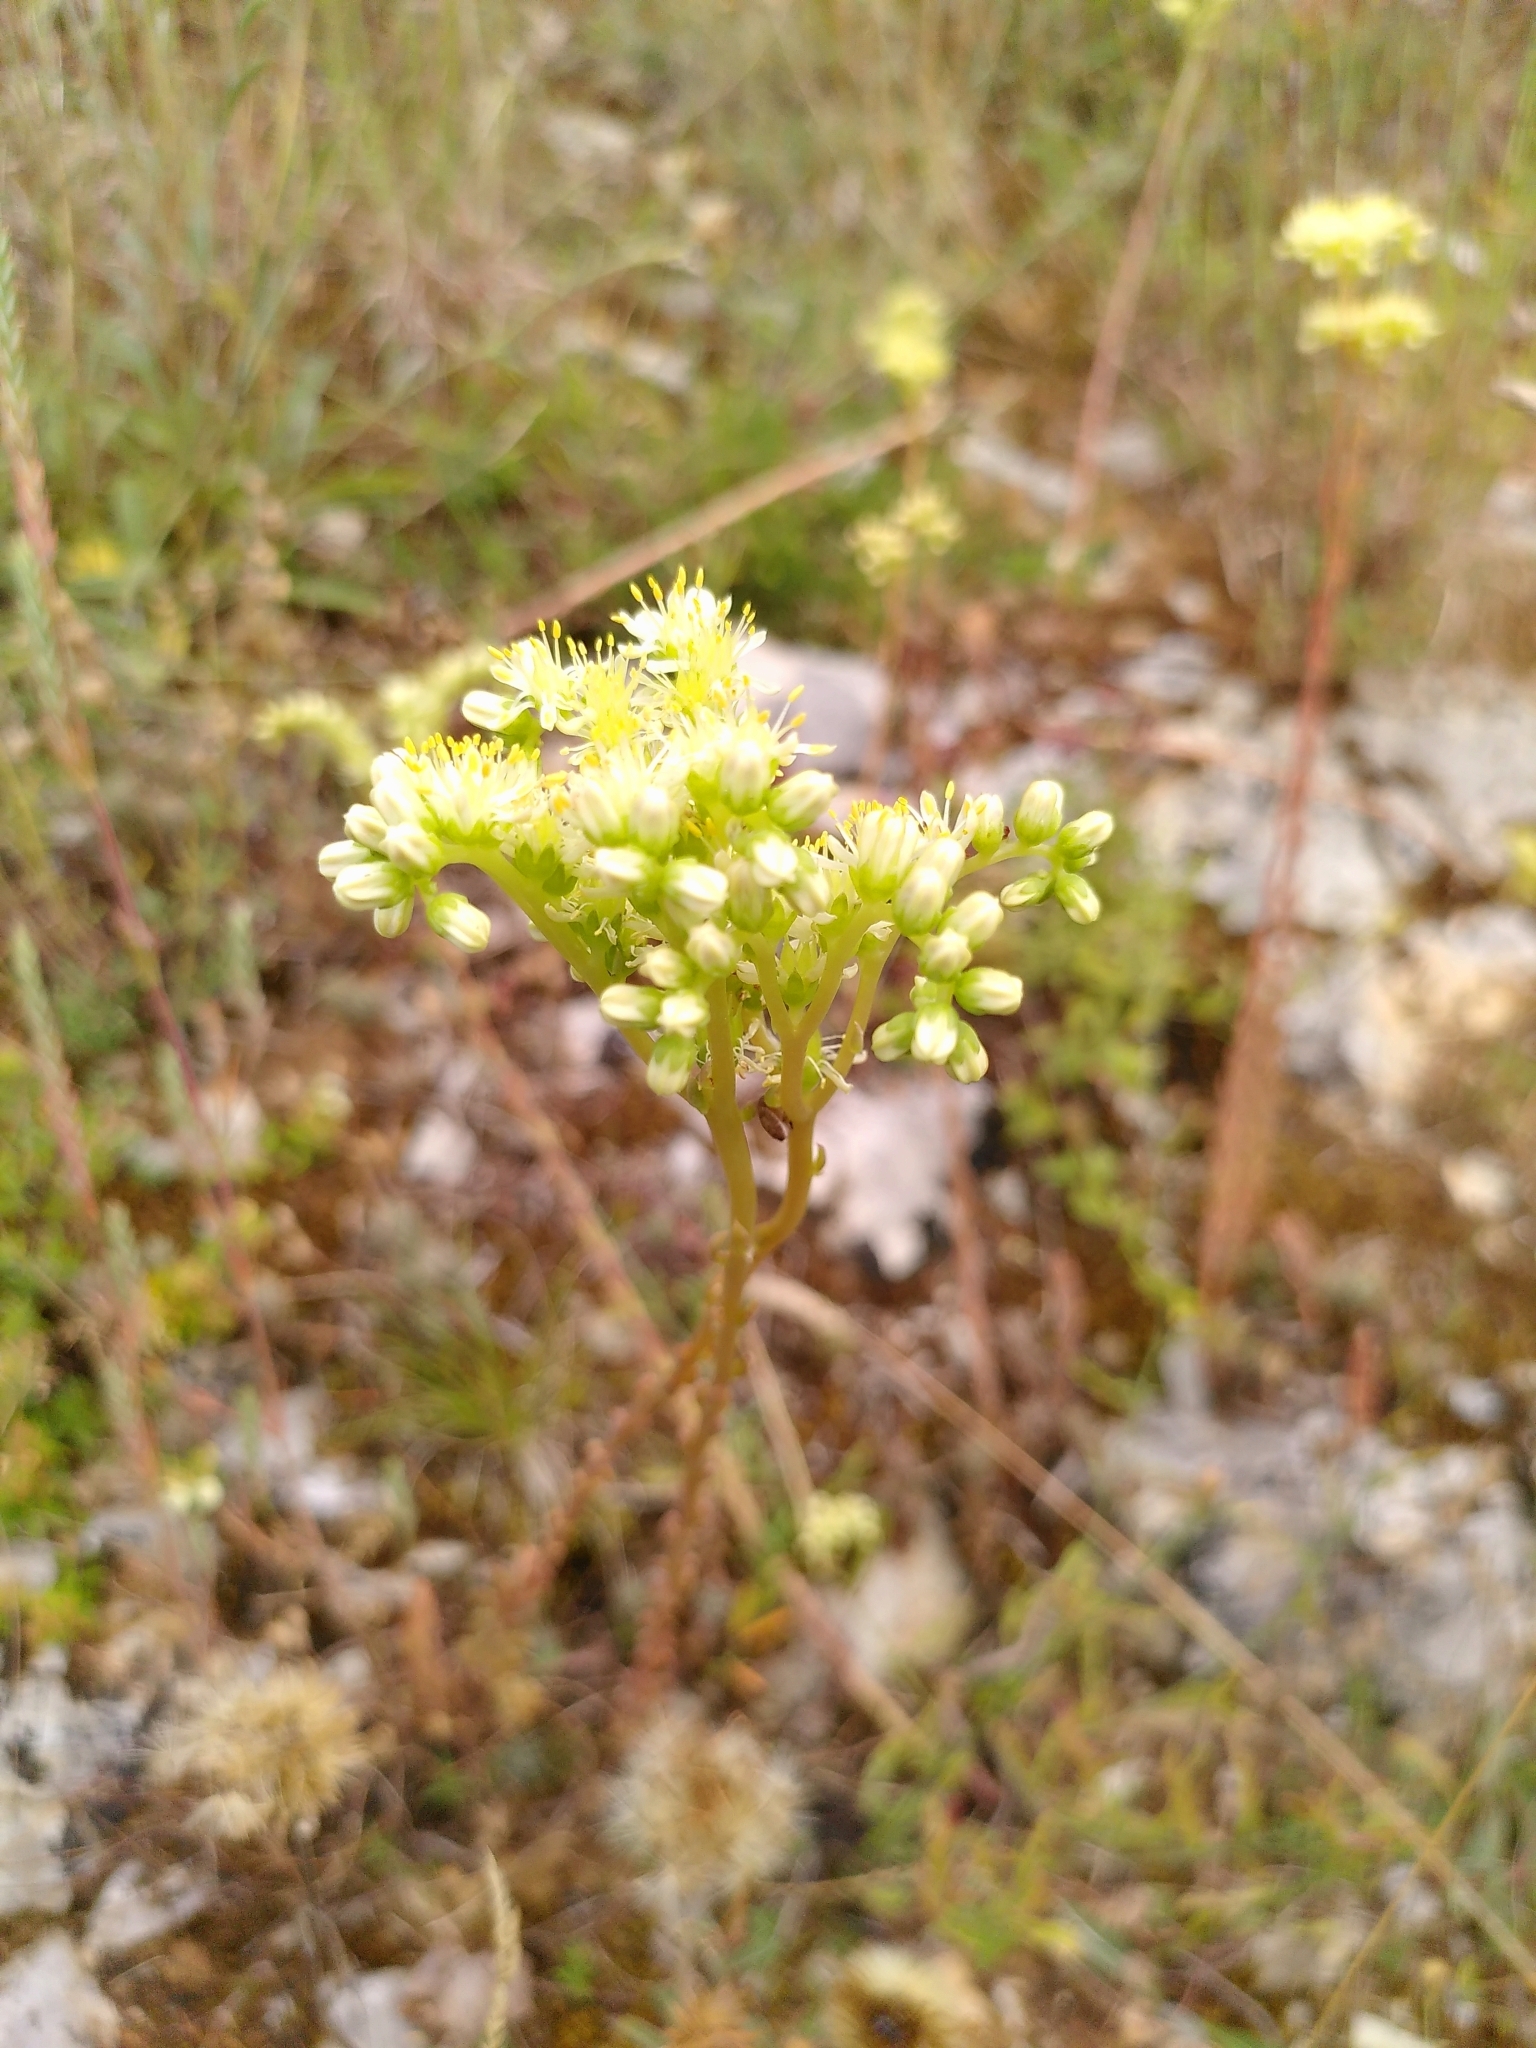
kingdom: Plantae
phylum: Tracheophyta
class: Magnoliopsida
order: Saxifragales
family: Crassulaceae
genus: Petrosedum
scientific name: Petrosedum sediforme
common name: Pale stonecrop
